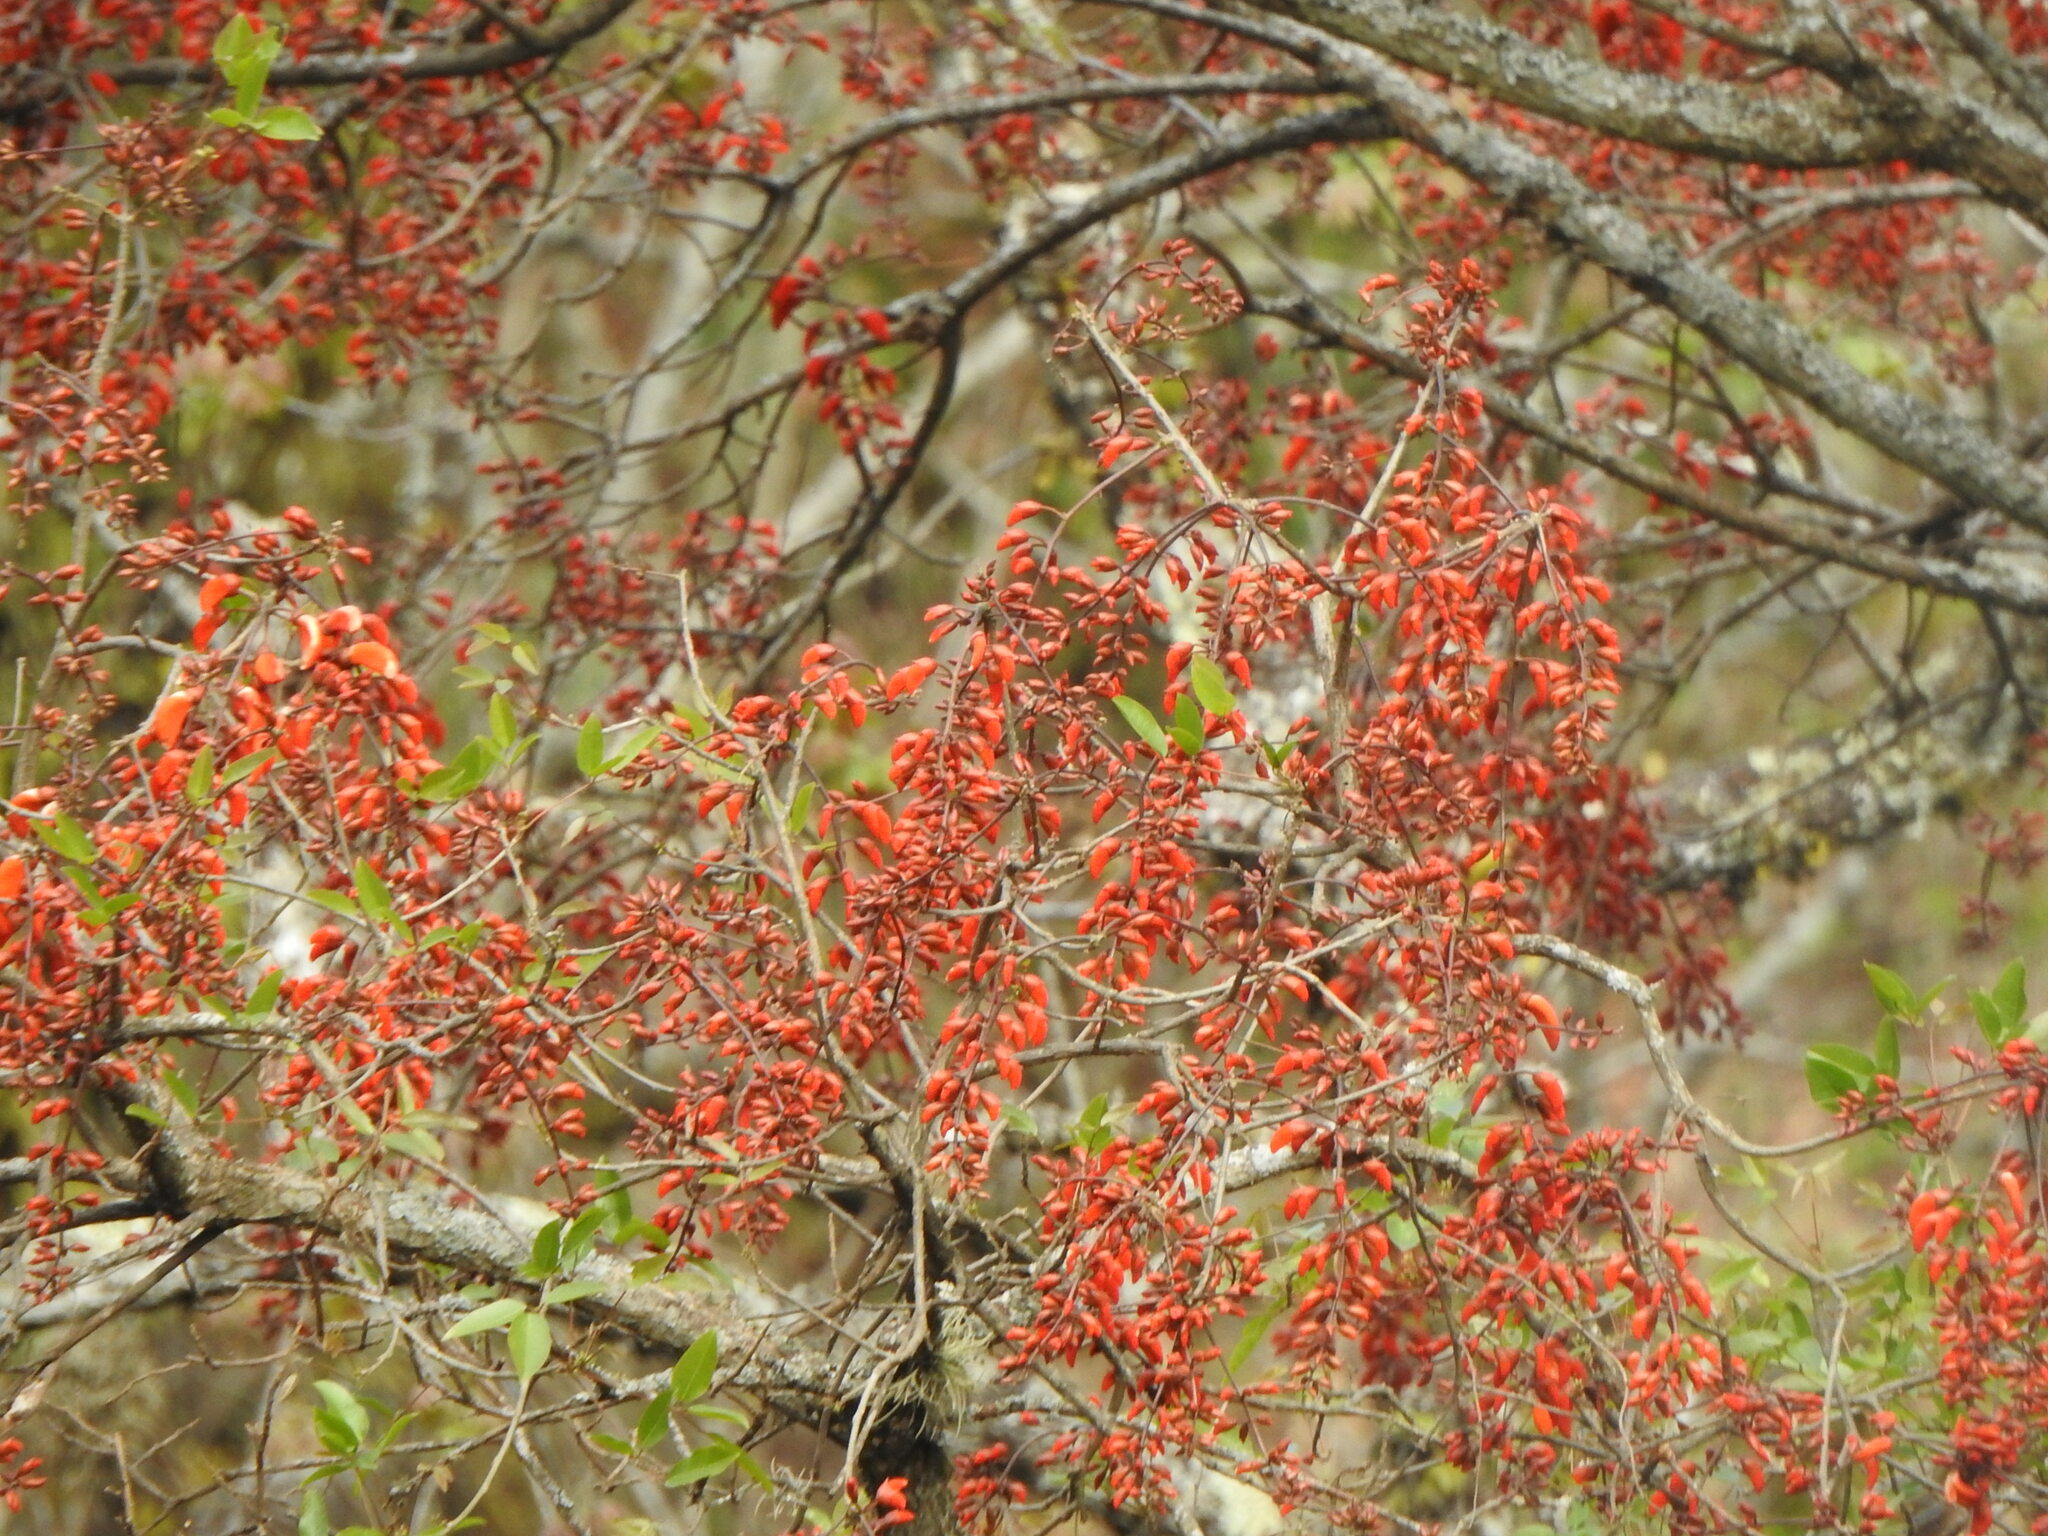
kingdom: Plantae
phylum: Tracheophyta
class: Magnoliopsida
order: Fabales
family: Fabaceae
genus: Erythrina
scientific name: Erythrina falcata
